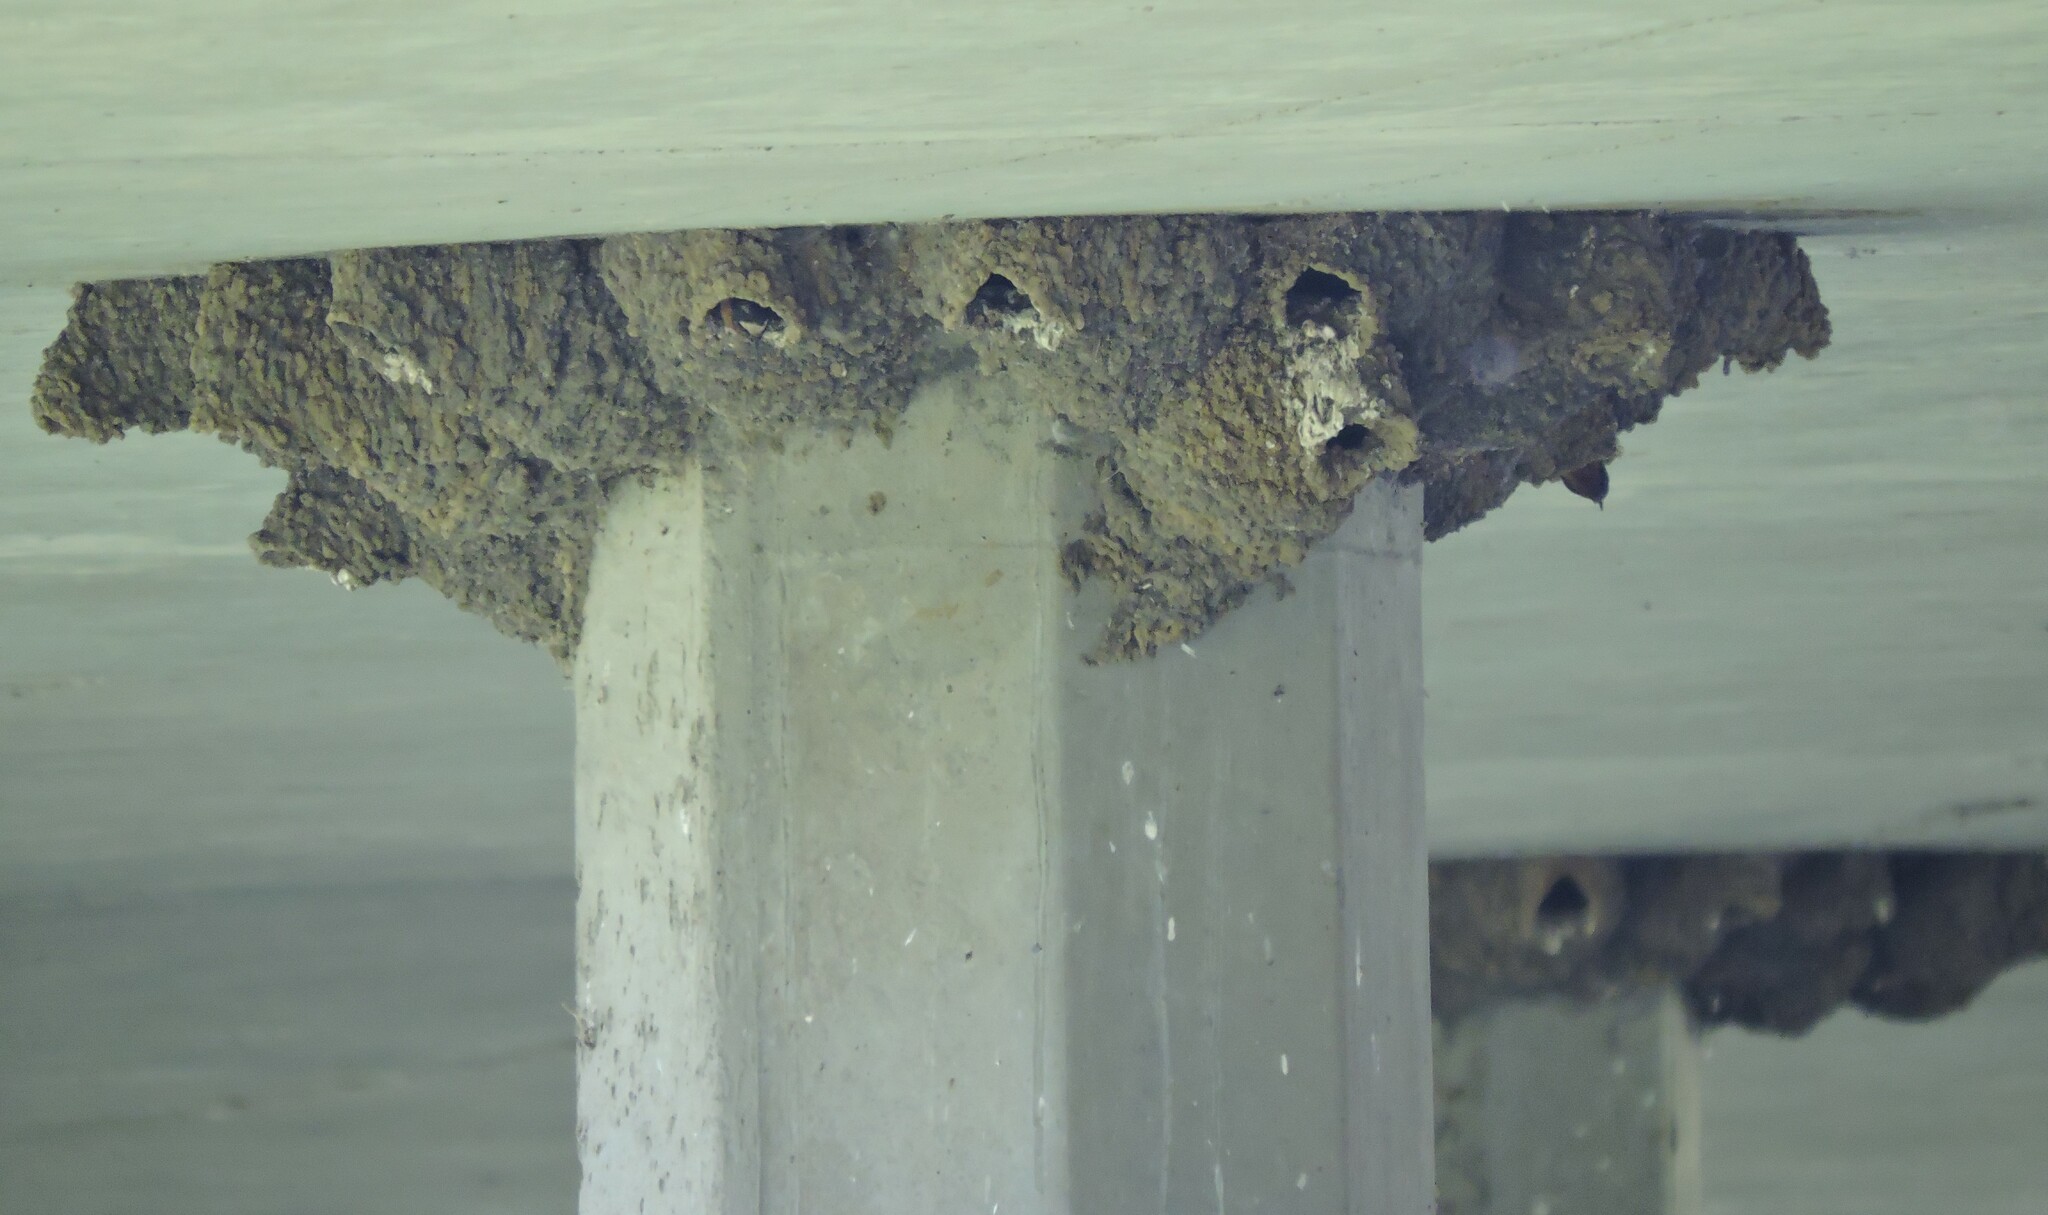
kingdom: Animalia
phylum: Chordata
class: Aves
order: Passeriformes
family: Hirundinidae
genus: Petrochelidon
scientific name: Petrochelidon pyrrhonota
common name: American cliff swallow
